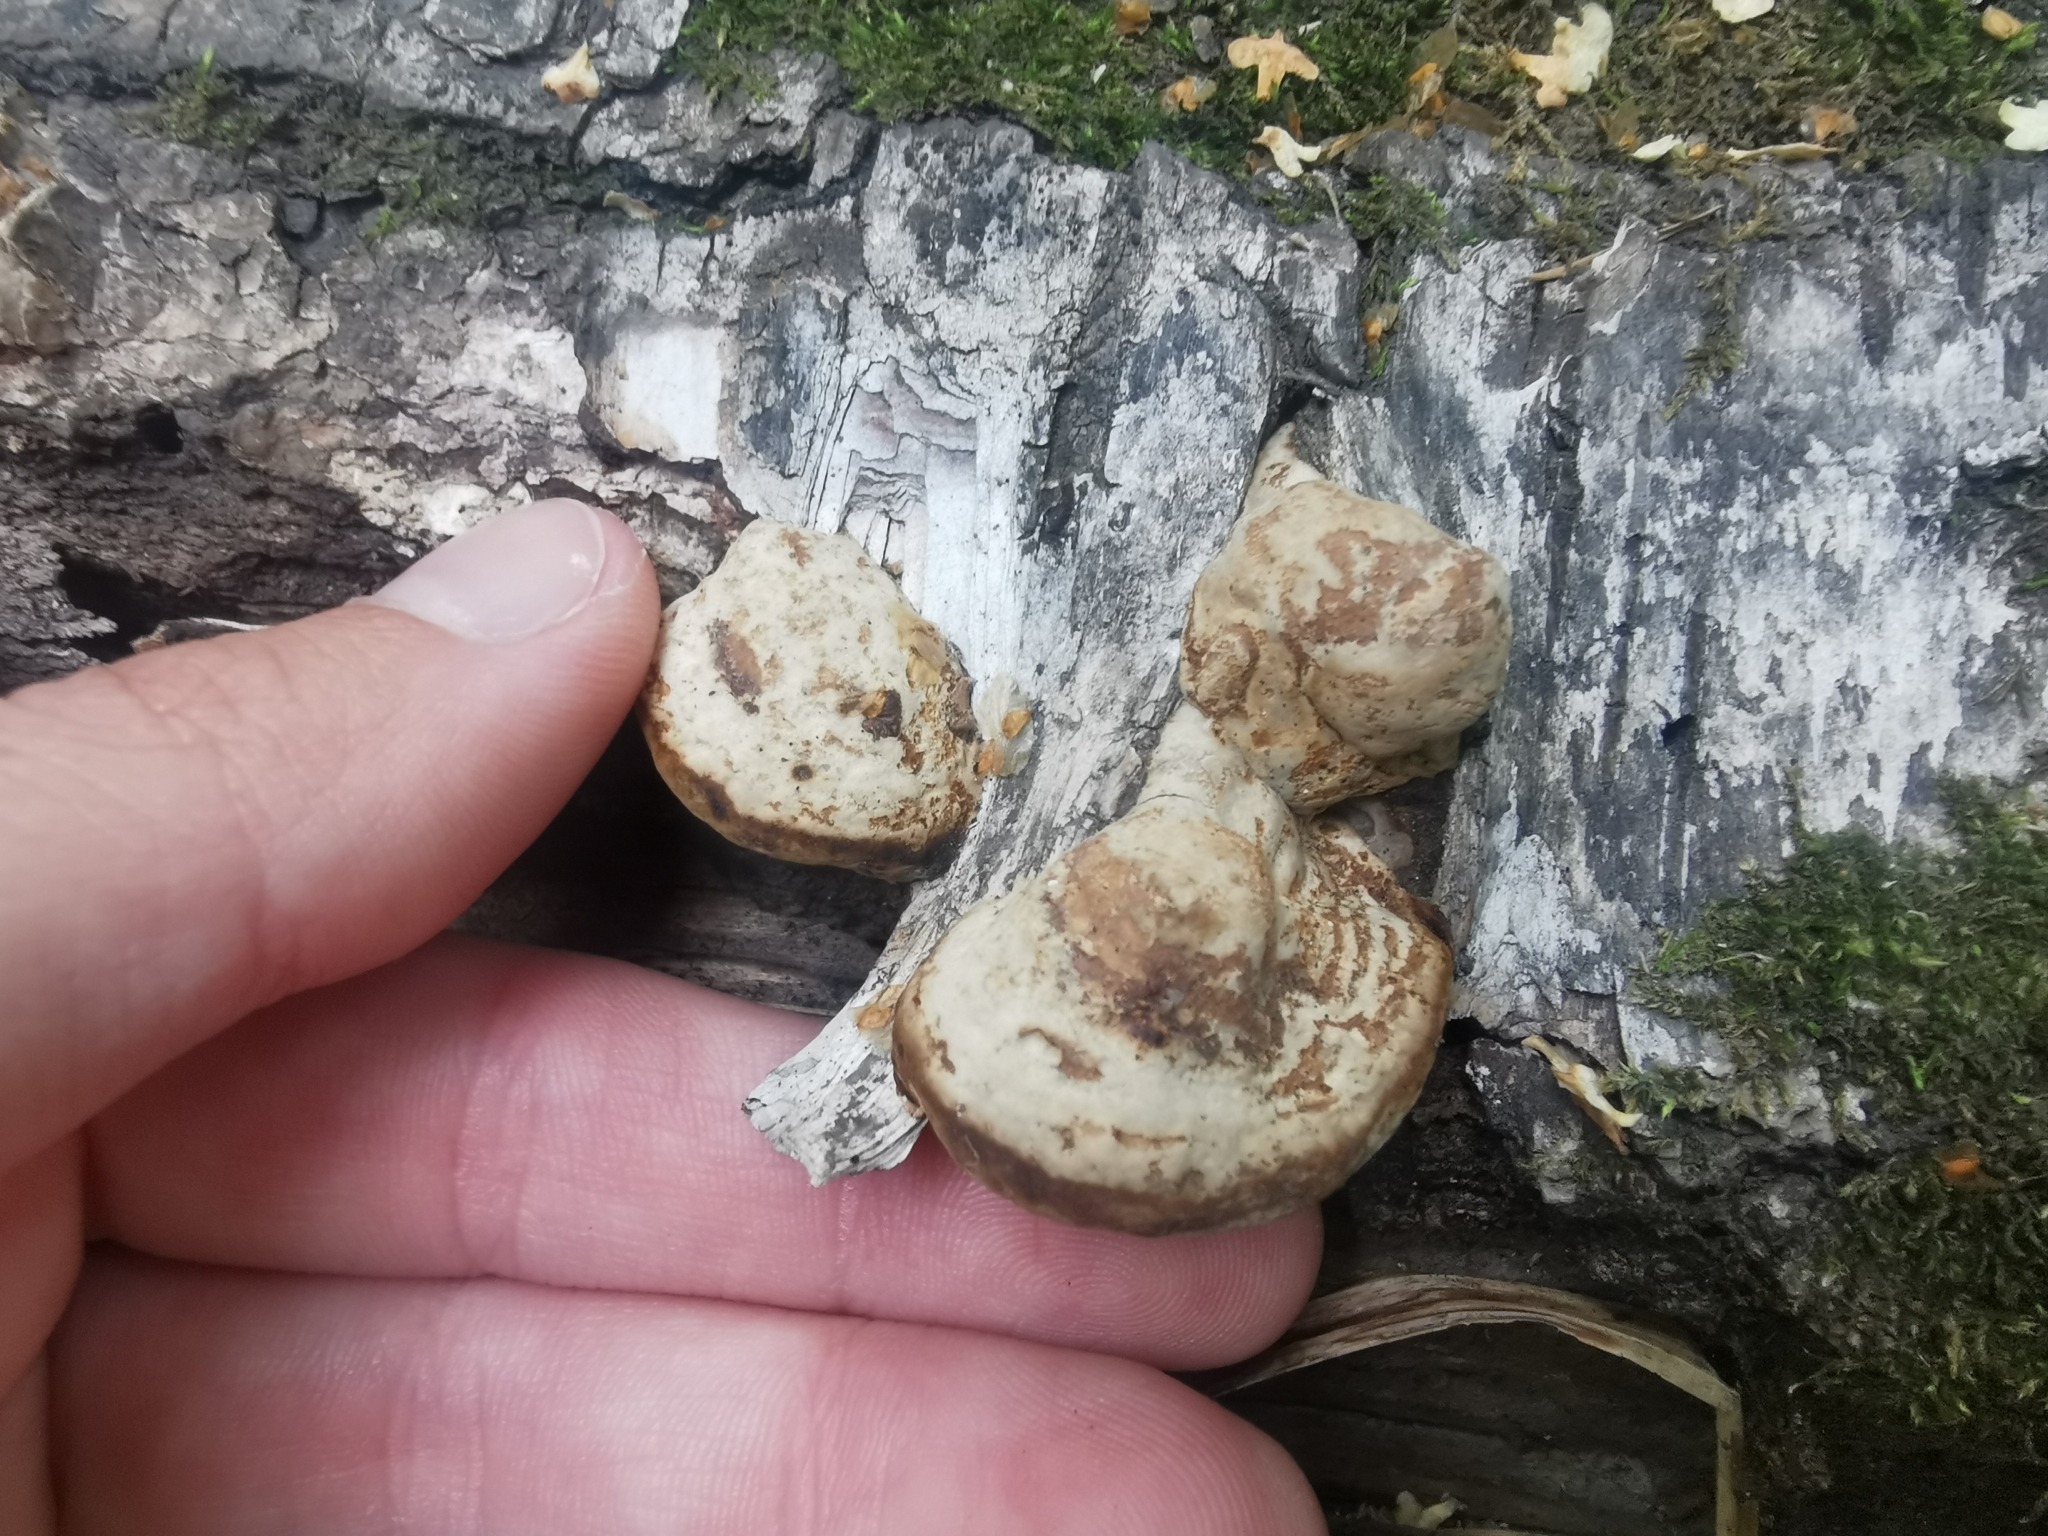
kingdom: Fungi
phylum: Basidiomycota
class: Agaricomycetes
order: Polyporales
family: Polyporaceae
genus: Fomes
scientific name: Fomes fomentarius
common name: Hoof fungus
